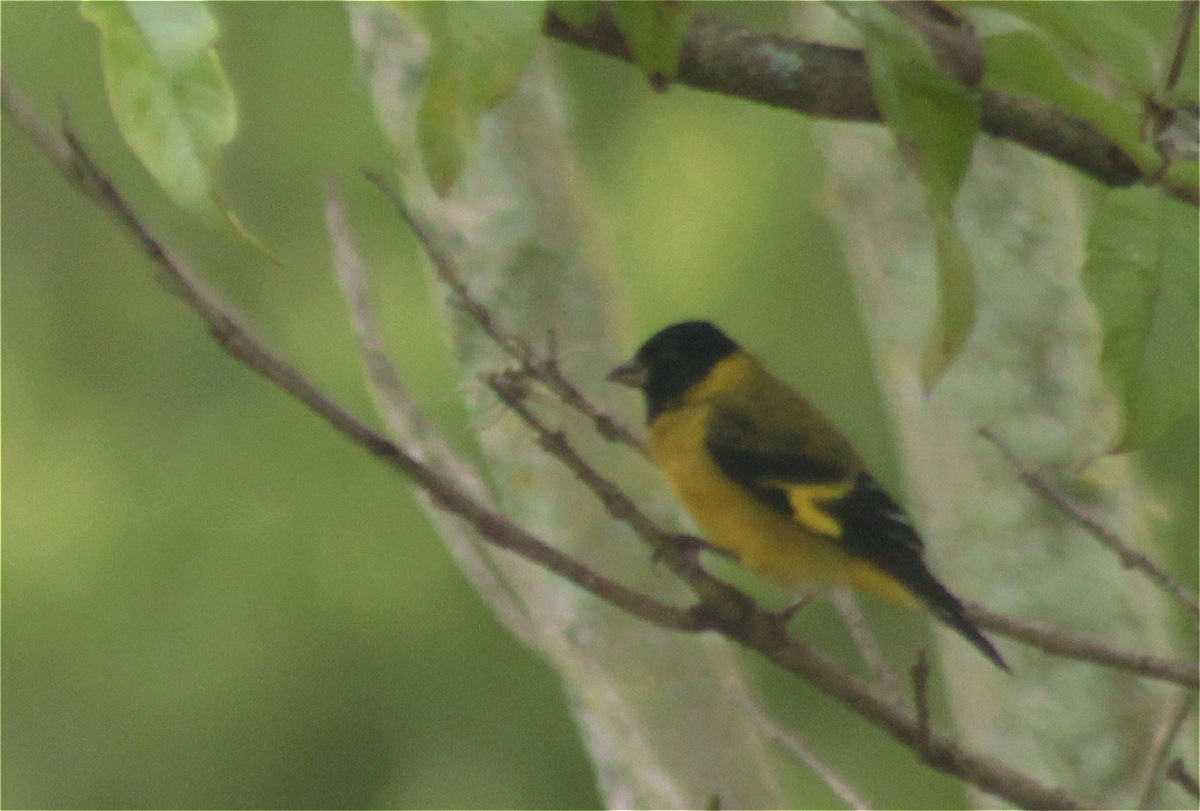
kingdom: Animalia
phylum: Chordata
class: Aves
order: Passeriformes
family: Fringillidae
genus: Spinus
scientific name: Spinus magellanicus
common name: Hooded siskin
